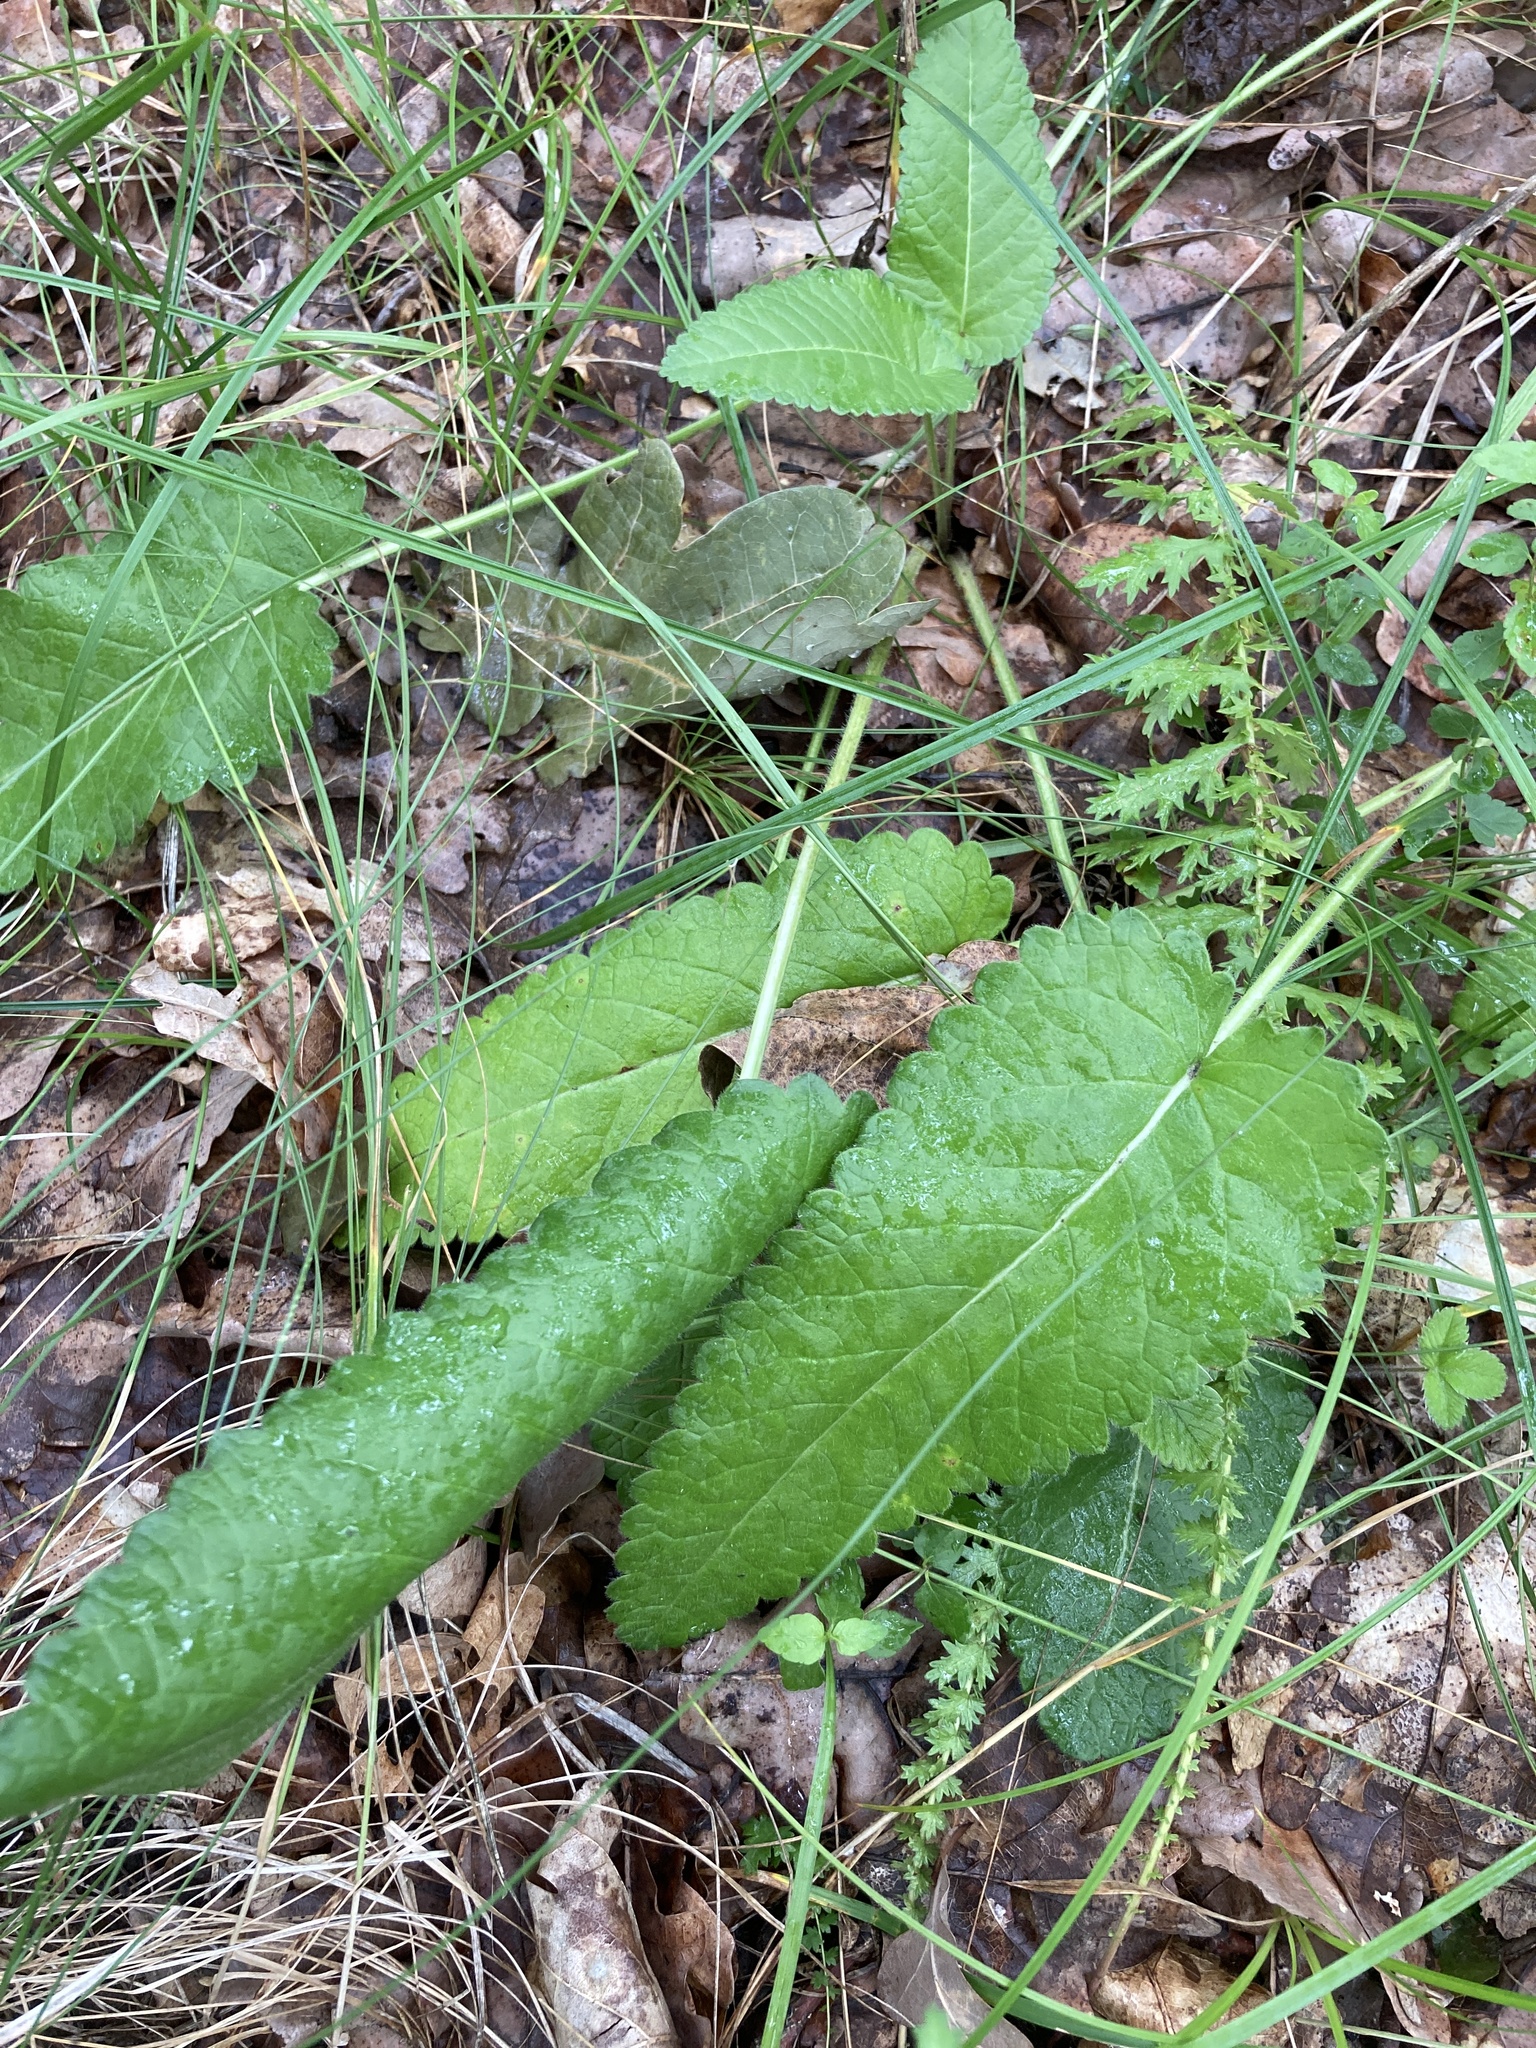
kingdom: Plantae
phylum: Tracheophyta
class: Magnoliopsida
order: Lamiales
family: Lamiaceae
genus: Betonica
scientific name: Betonica officinalis
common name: Bishop's-wort
